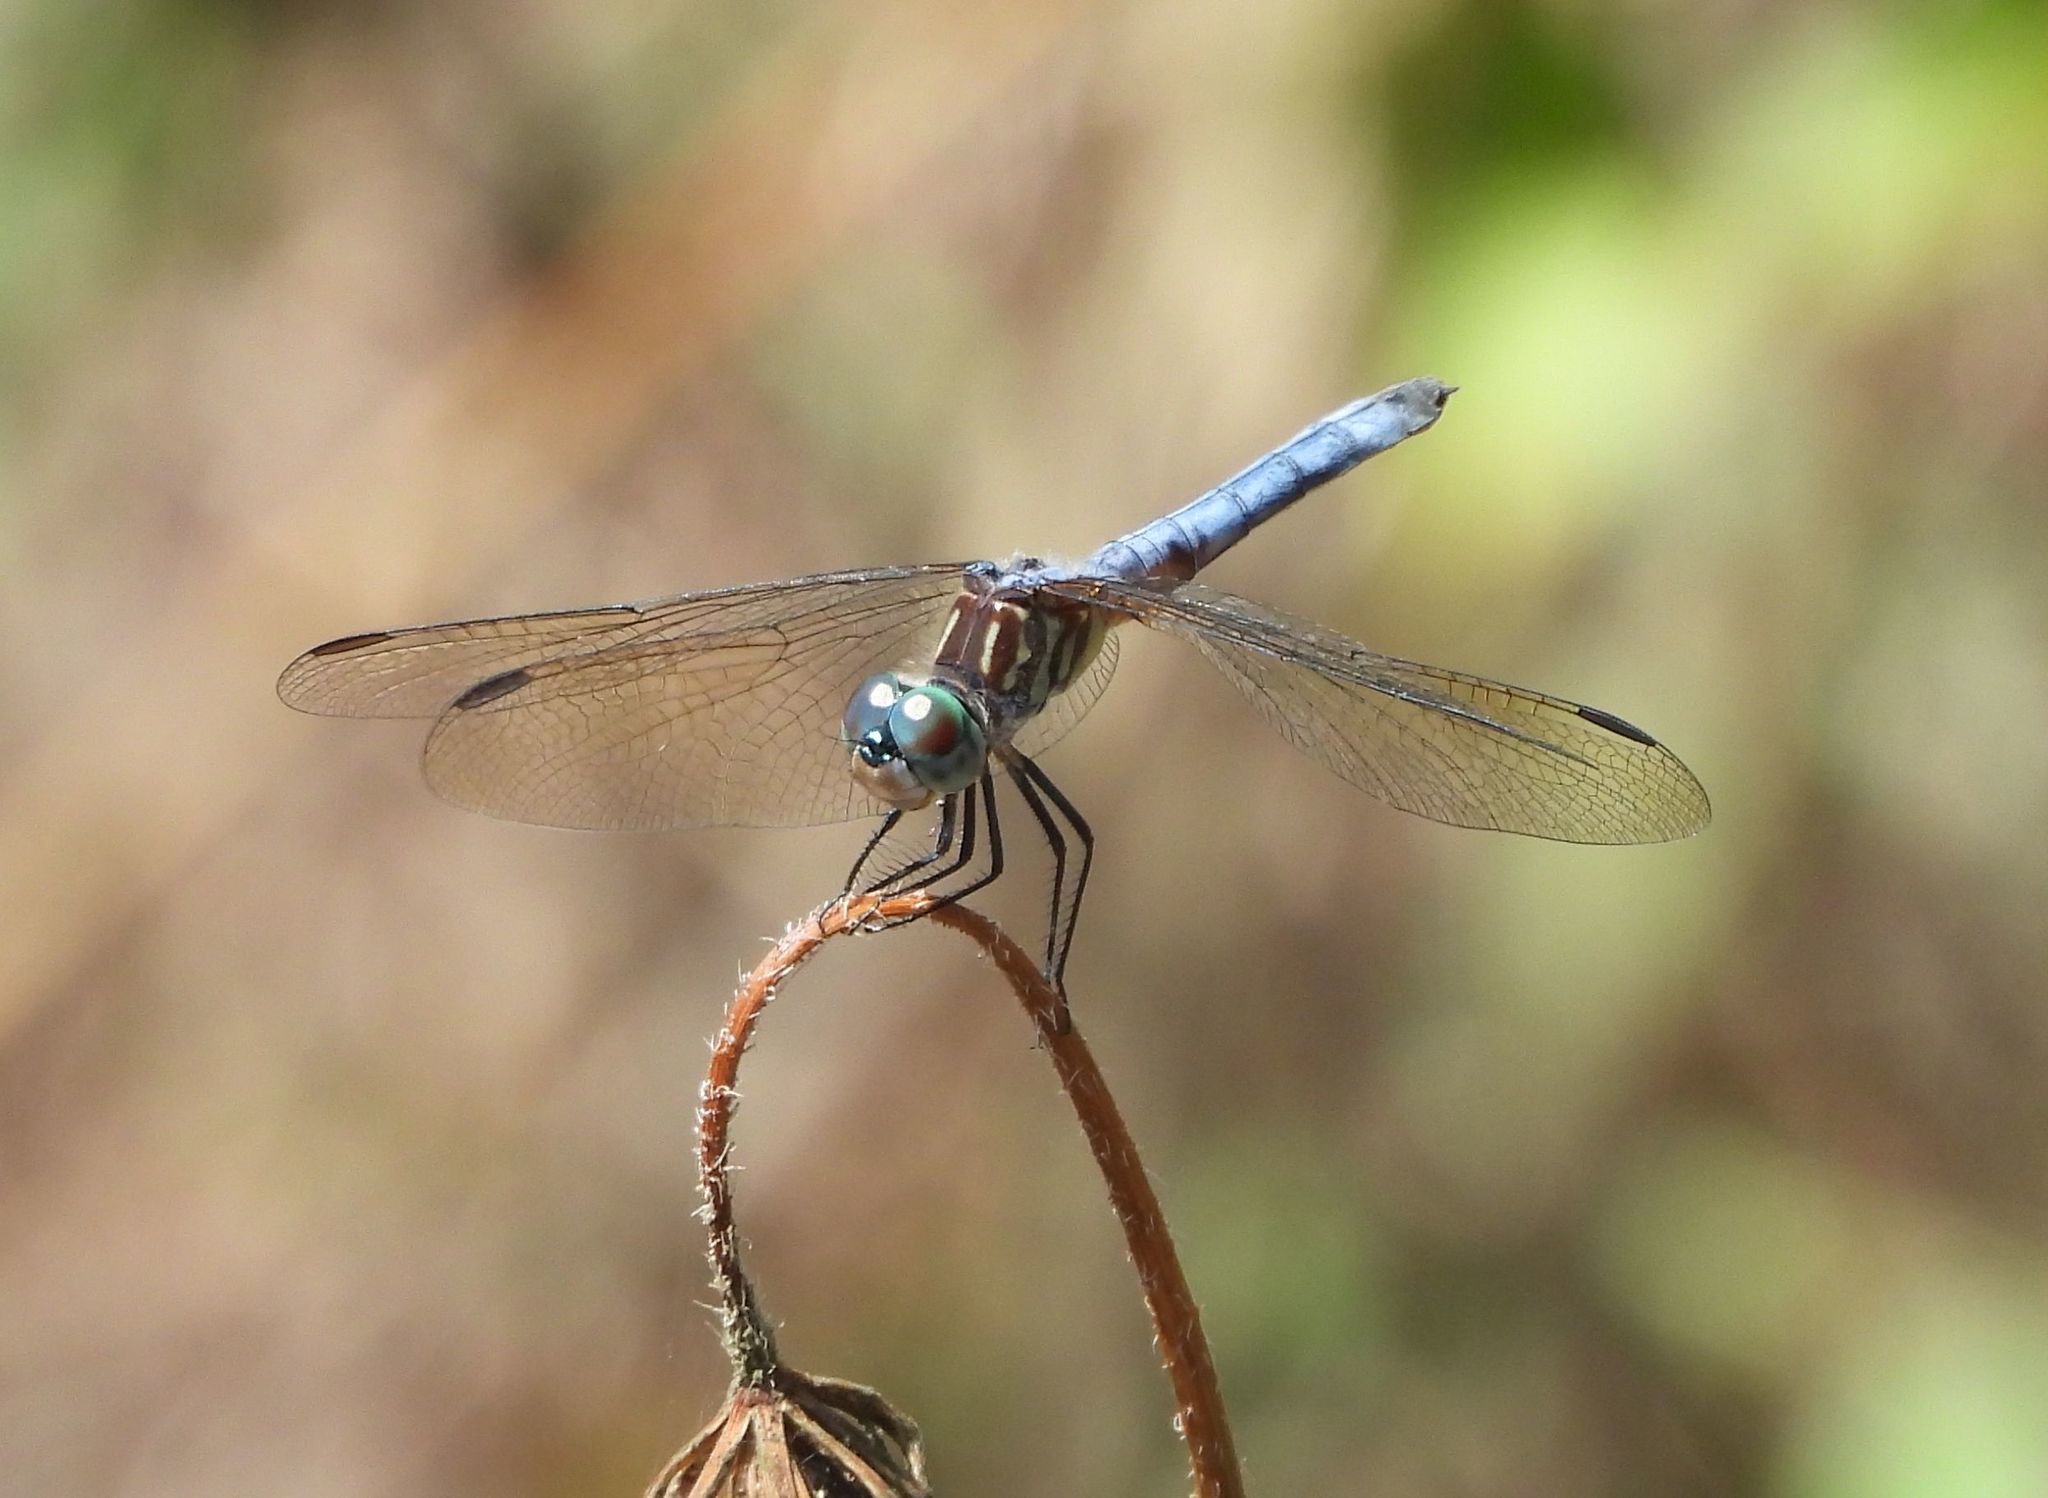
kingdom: Animalia
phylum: Arthropoda
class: Insecta
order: Odonata
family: Libellulidae
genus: Pachydiplax
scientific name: Pachydiplax longipennis
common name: Blue dasher
